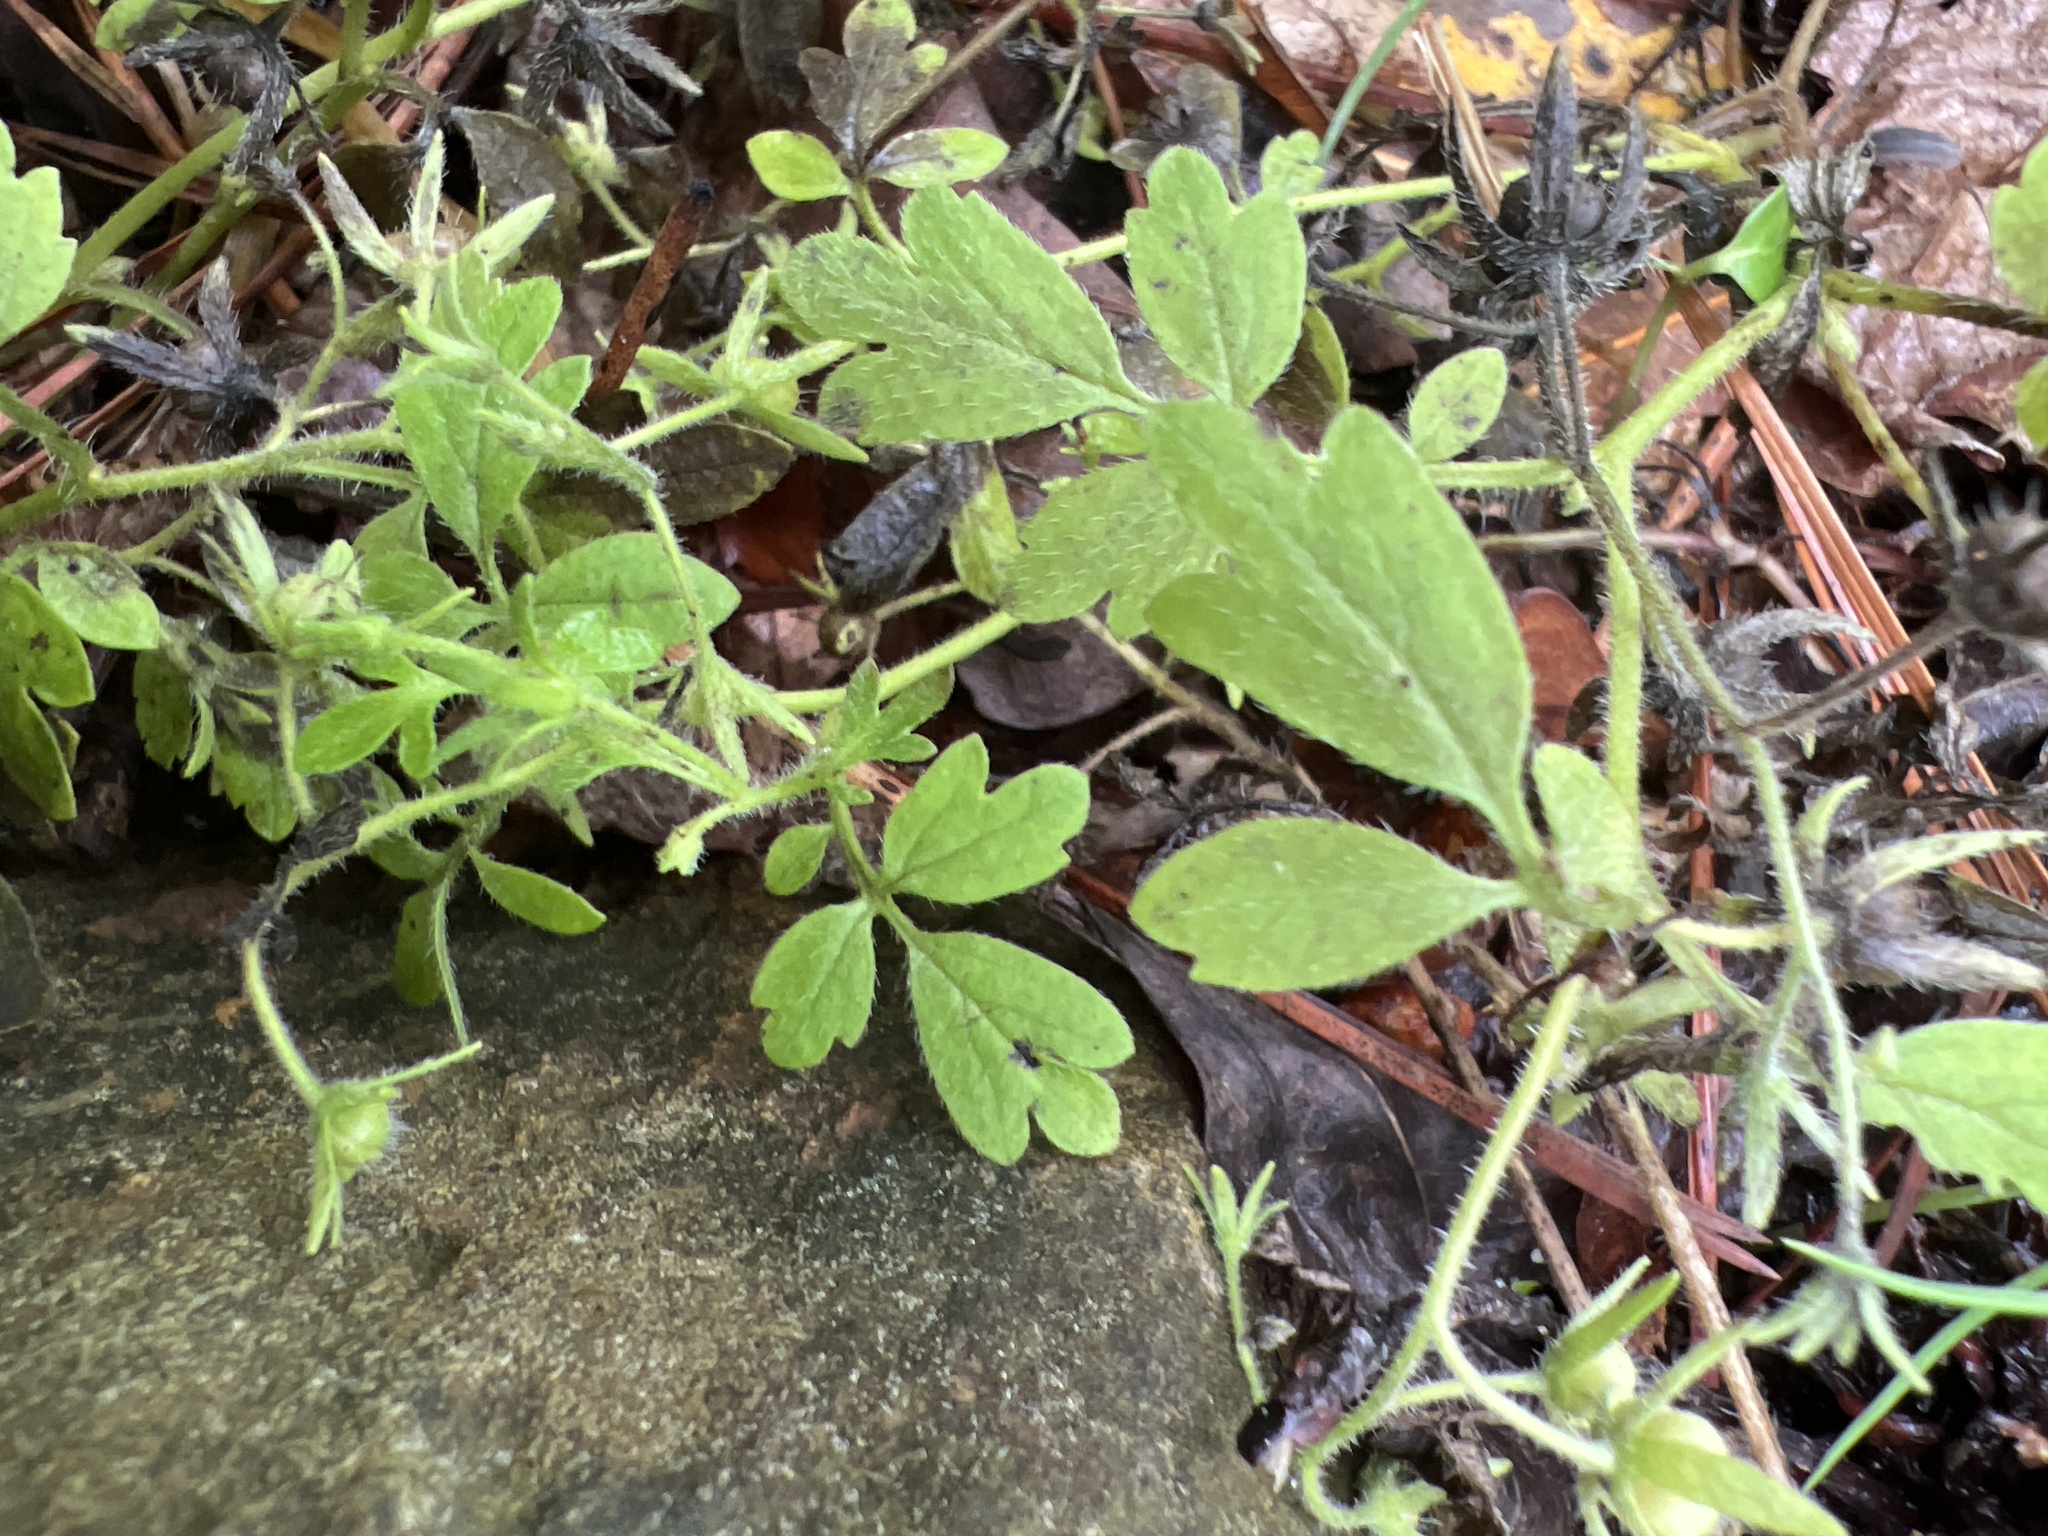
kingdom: Plantae
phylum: Tracheophyta
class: Magnoliopsida
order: Boraginales
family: Hydrophyllaceae
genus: Phacelia
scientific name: Phacelia covillei
